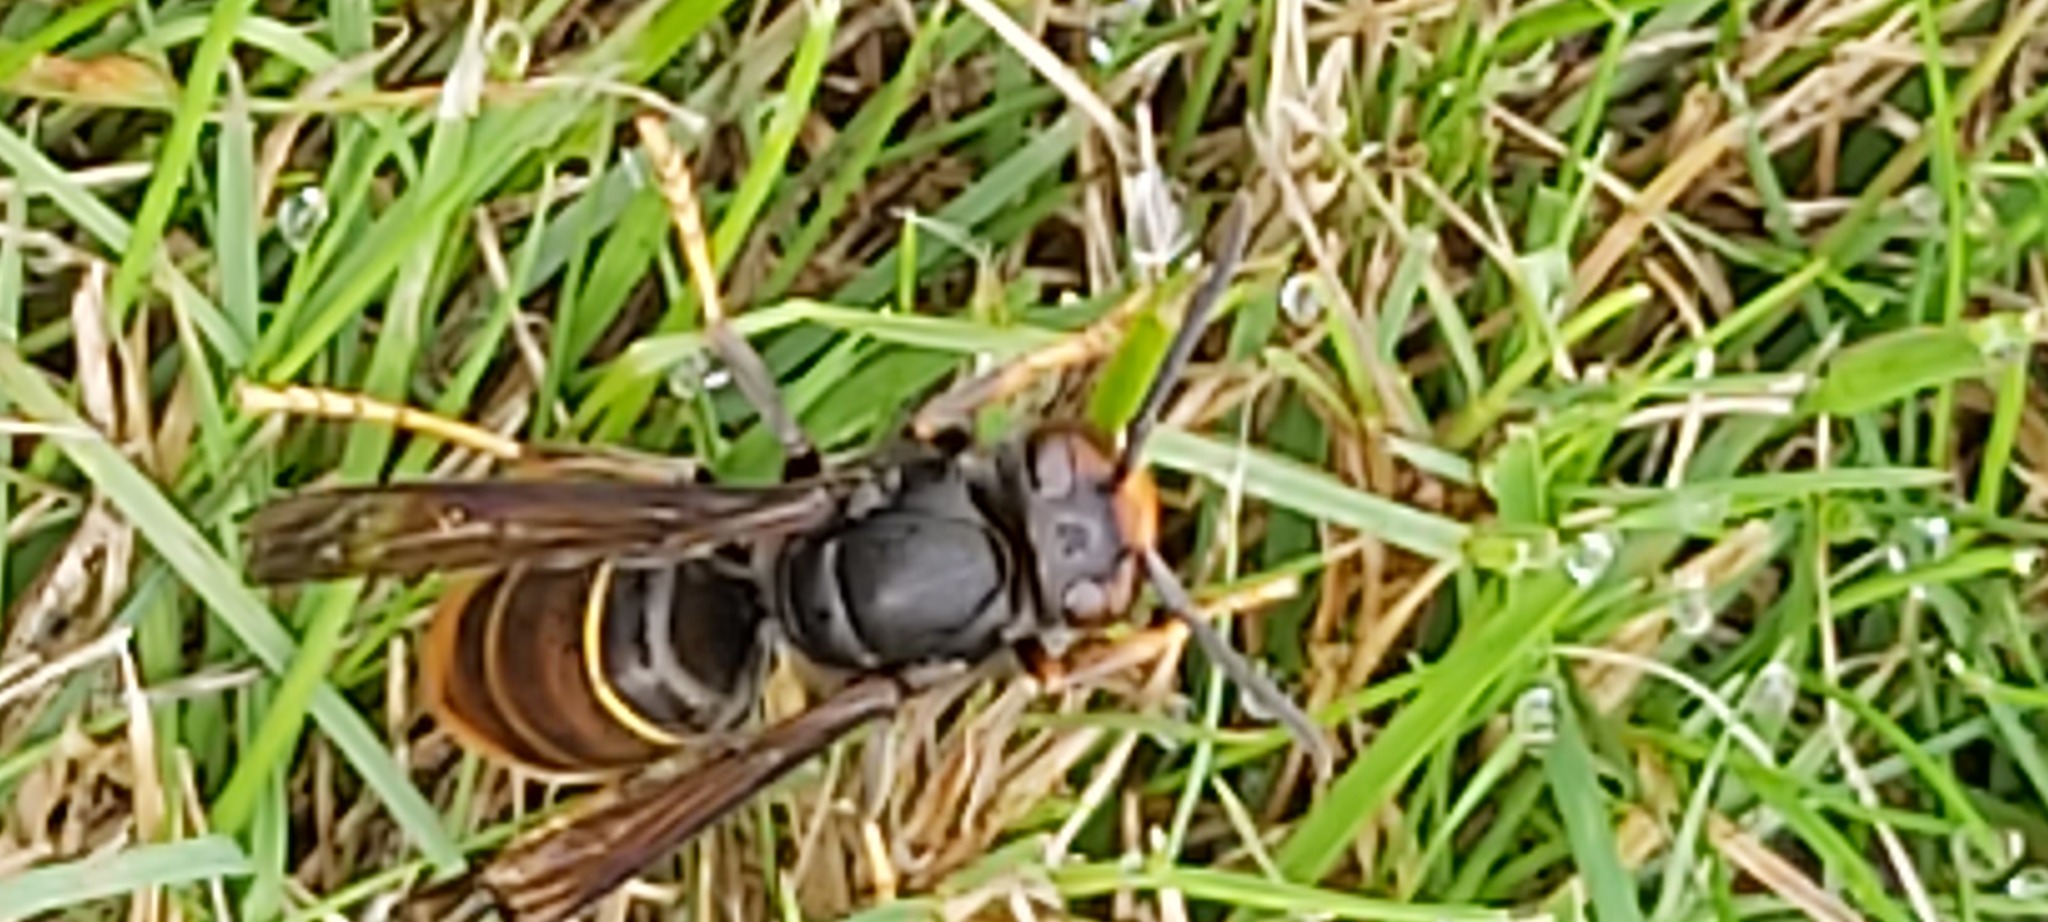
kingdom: Animalia
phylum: Arthropoda
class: Insecta
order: Hymenoptera
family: Vespidae
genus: Vespa
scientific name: Vespa velutina
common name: Asian hornet
